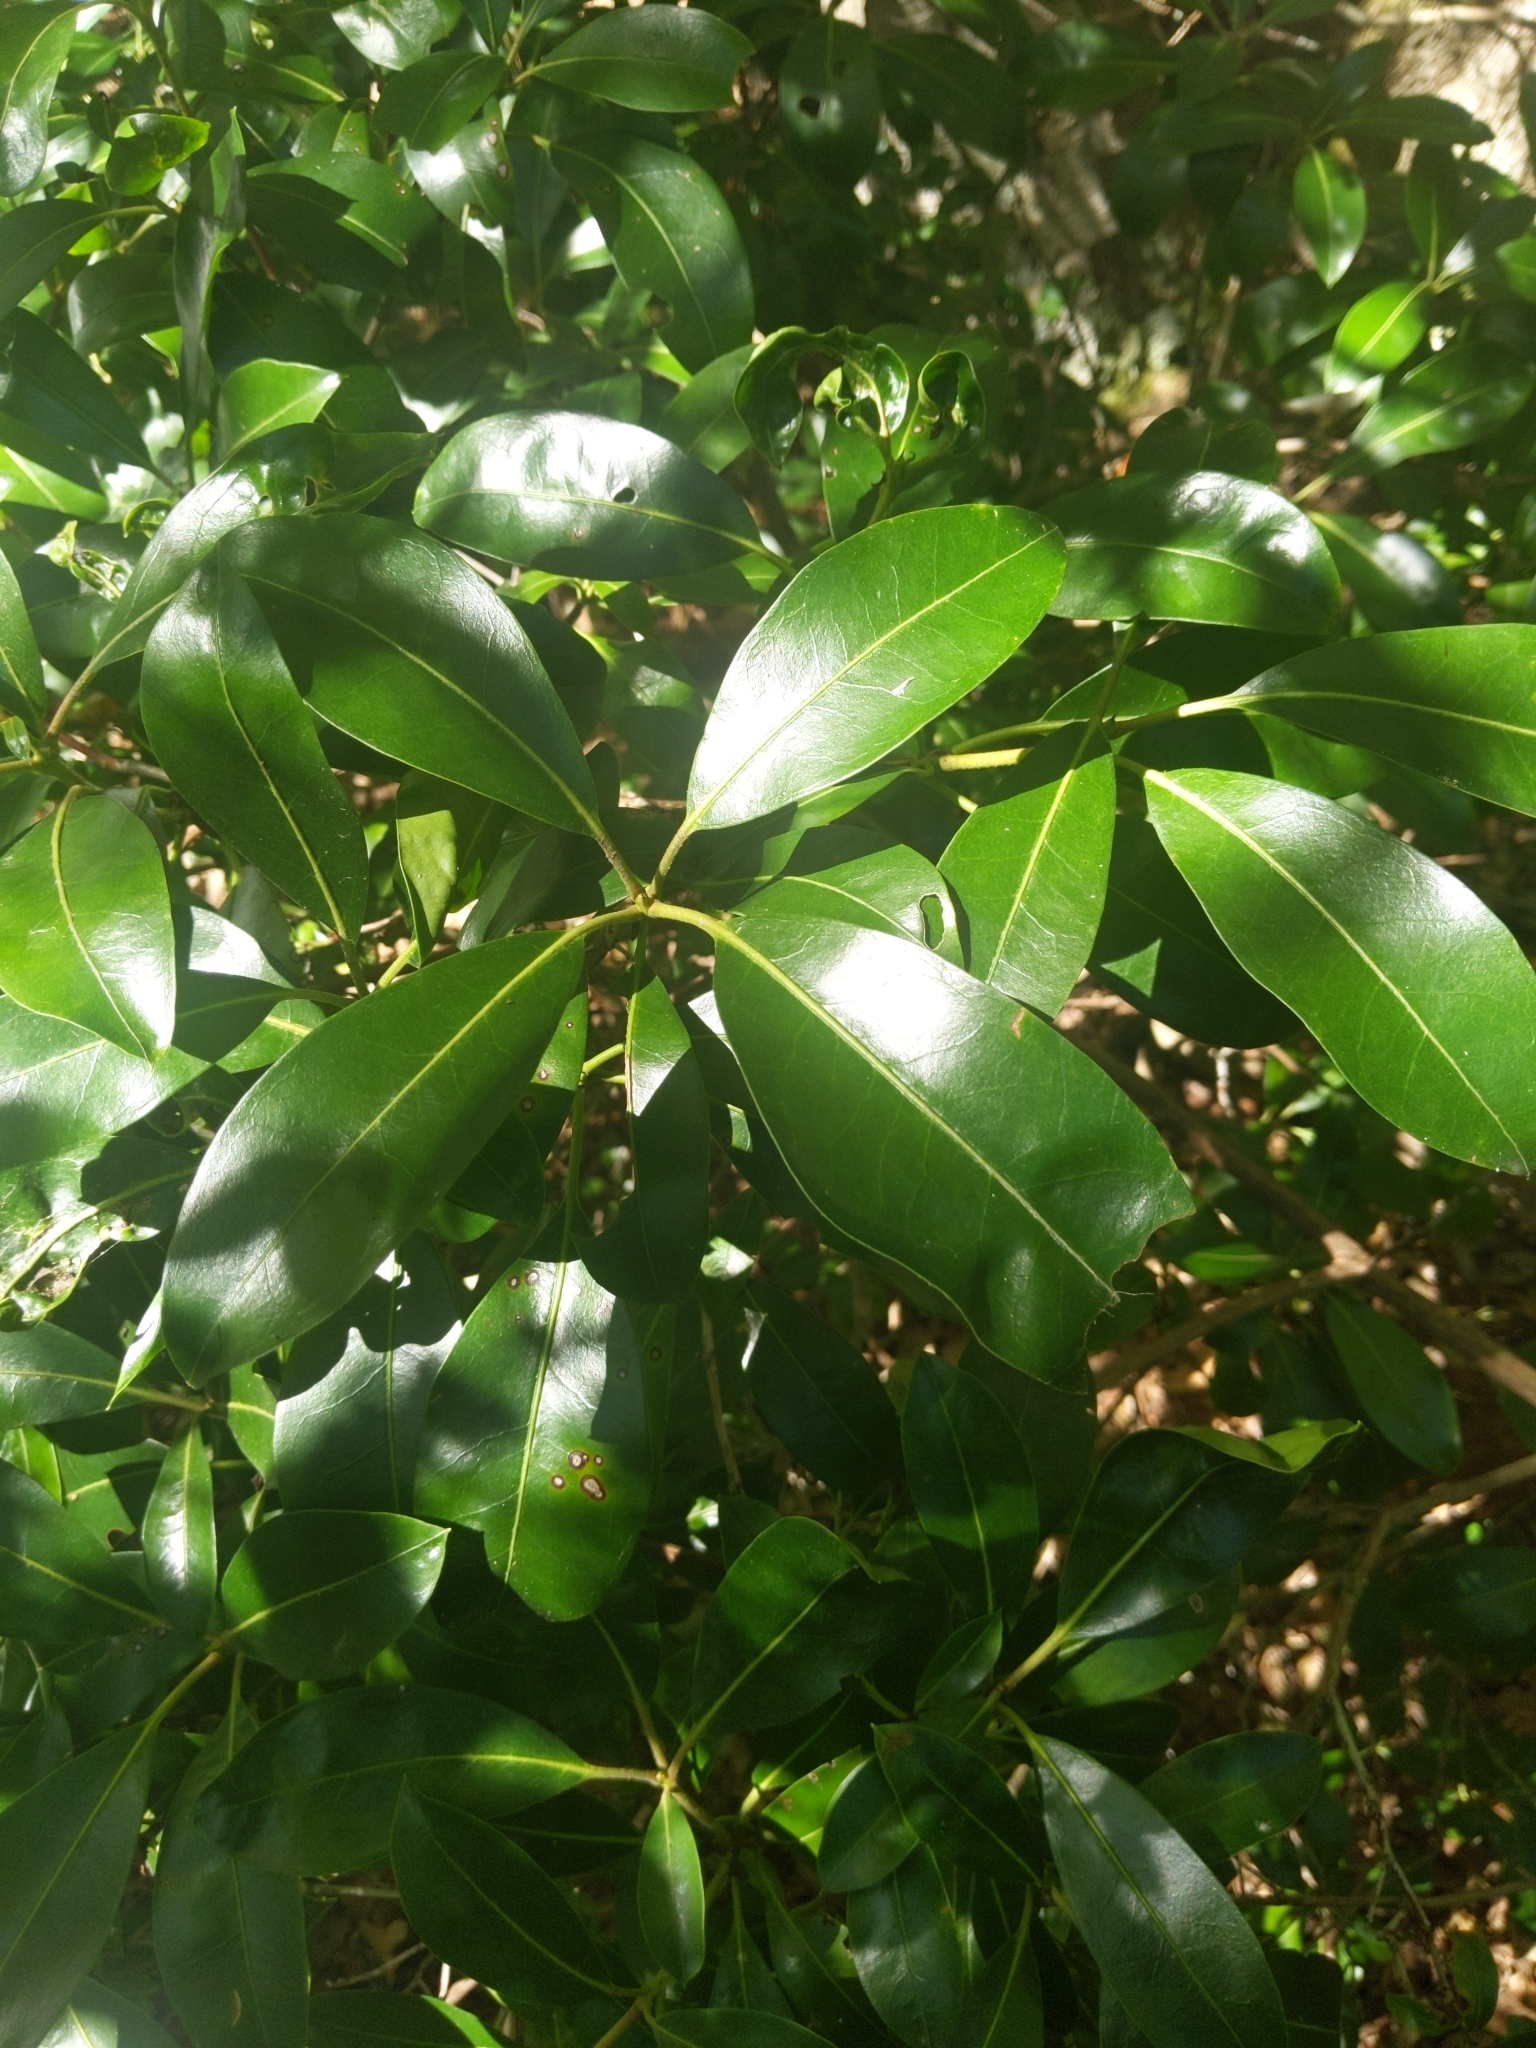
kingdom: Plantae
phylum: Tracheophyta
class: Magnoliopsida
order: Ericales
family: Ericaceae
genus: Kalmia
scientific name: Kalmia latifolia
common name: Mountain-laurel
